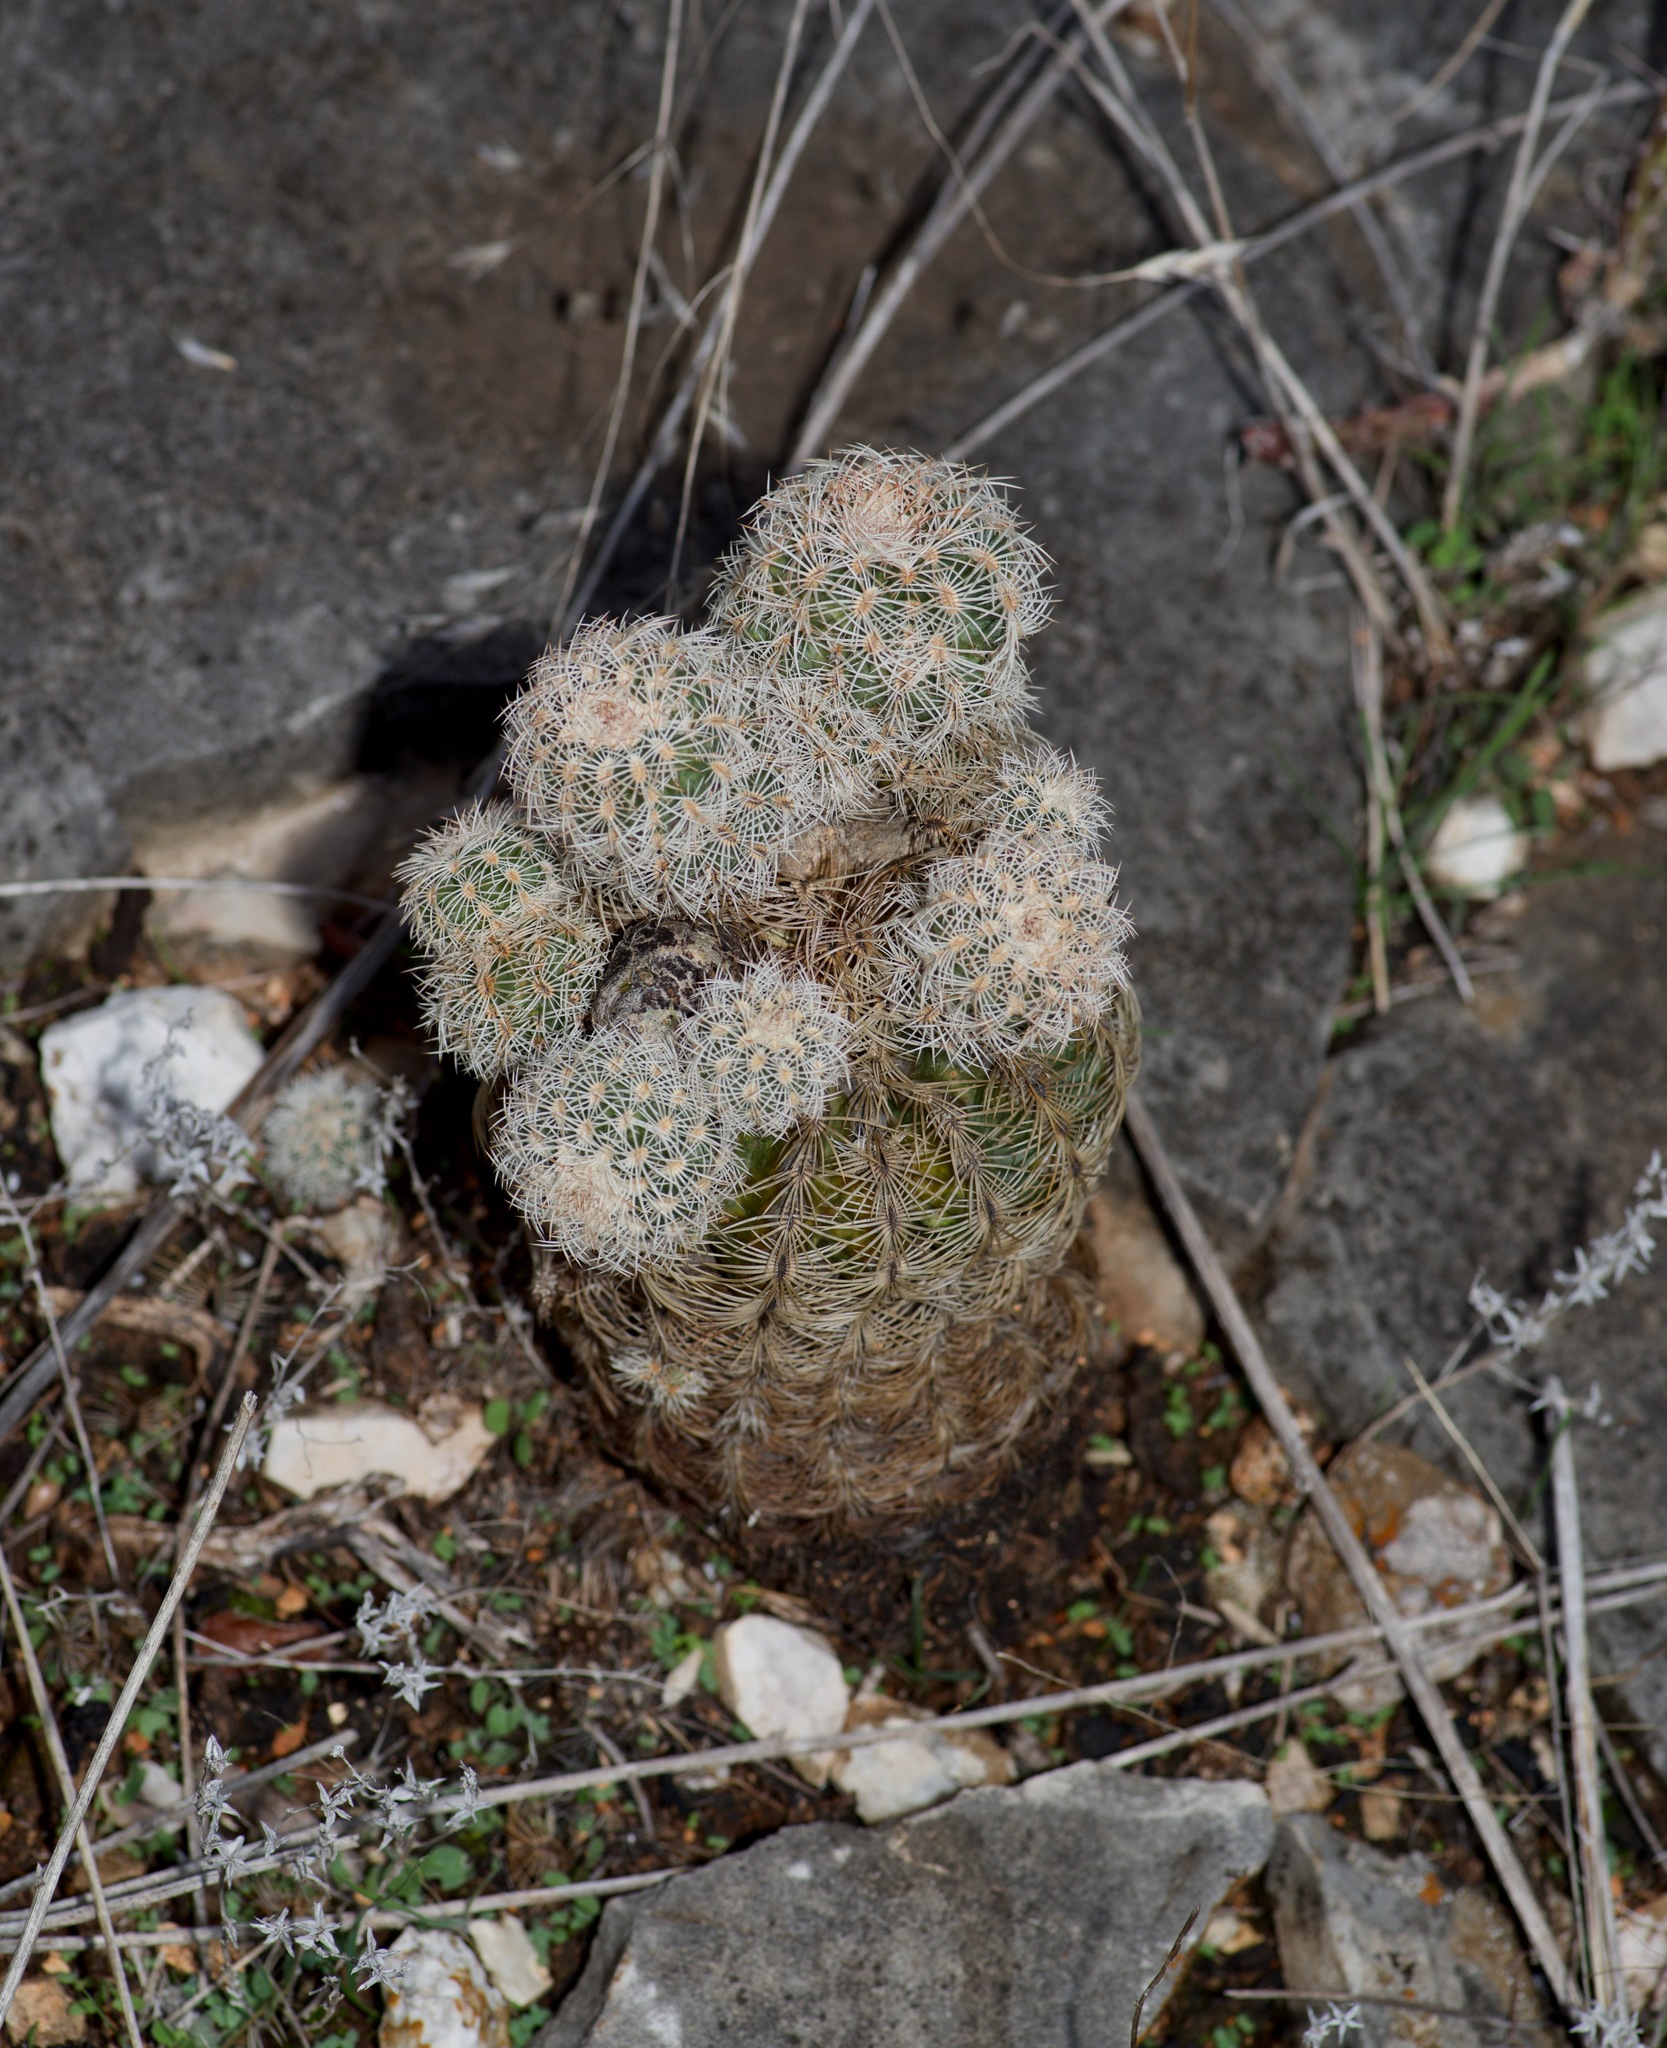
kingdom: Plantae
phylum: Tracheophyta
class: Magnoliopsida
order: Caryophyllales
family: Cactaceae
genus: Echinocereus
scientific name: Echinocereus reichenbachii
